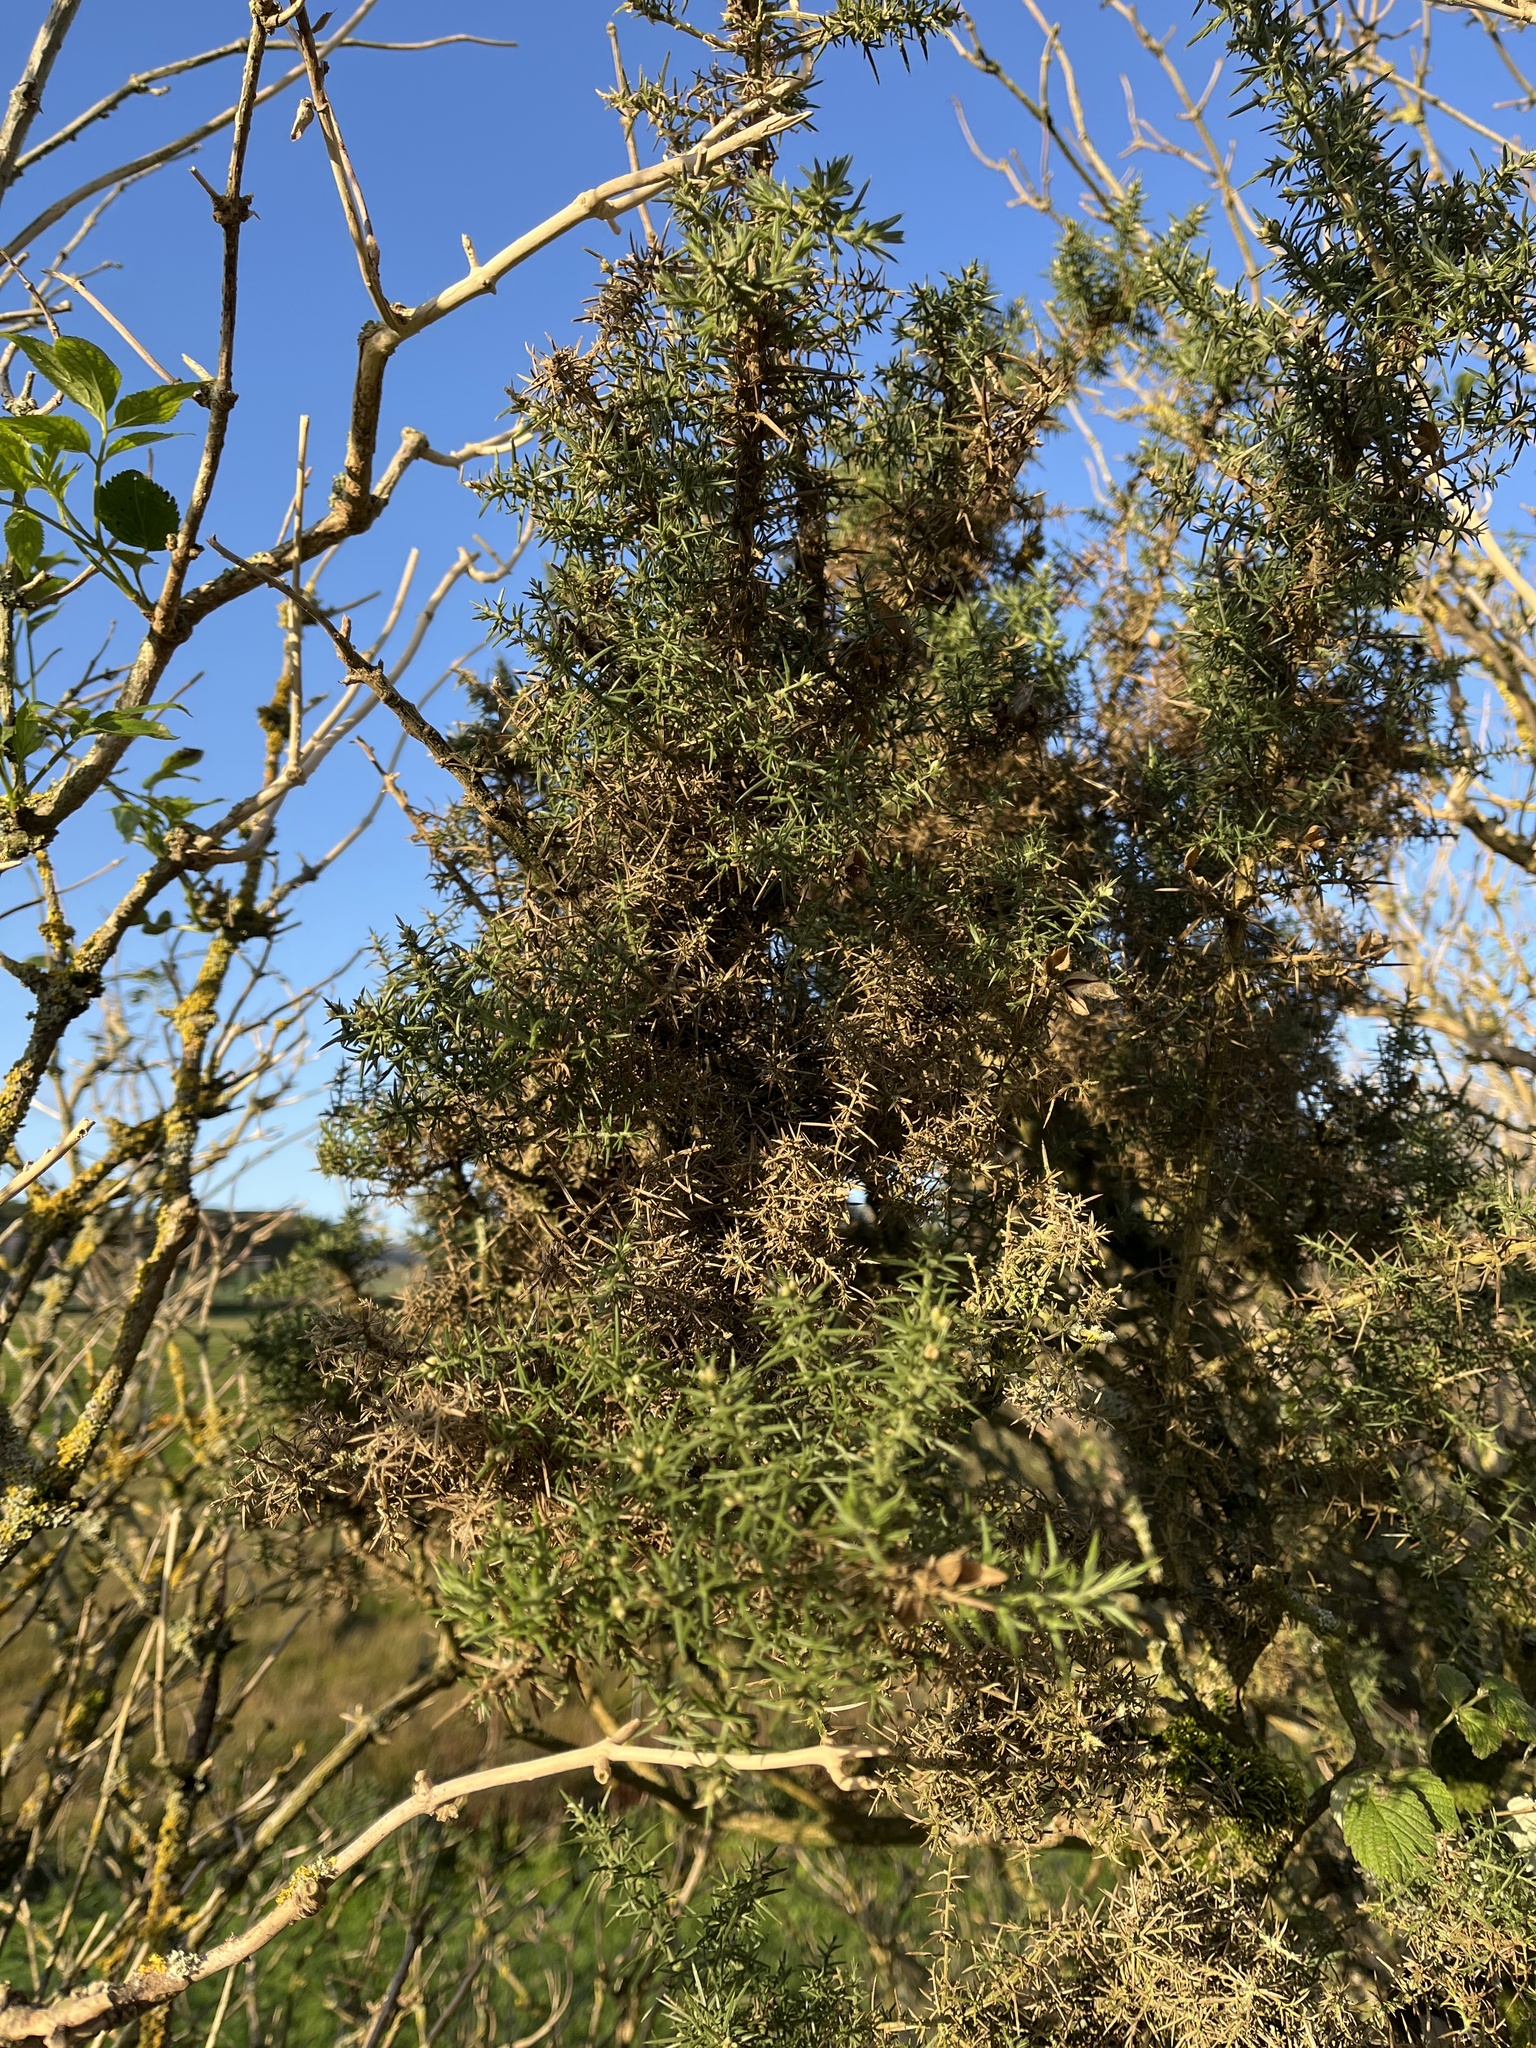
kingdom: Plantae
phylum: Tracheophyta
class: Magnoliopsida
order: Fabales
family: Fabaceae
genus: Ulex
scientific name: Ulex europaeus
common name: Common gorse
